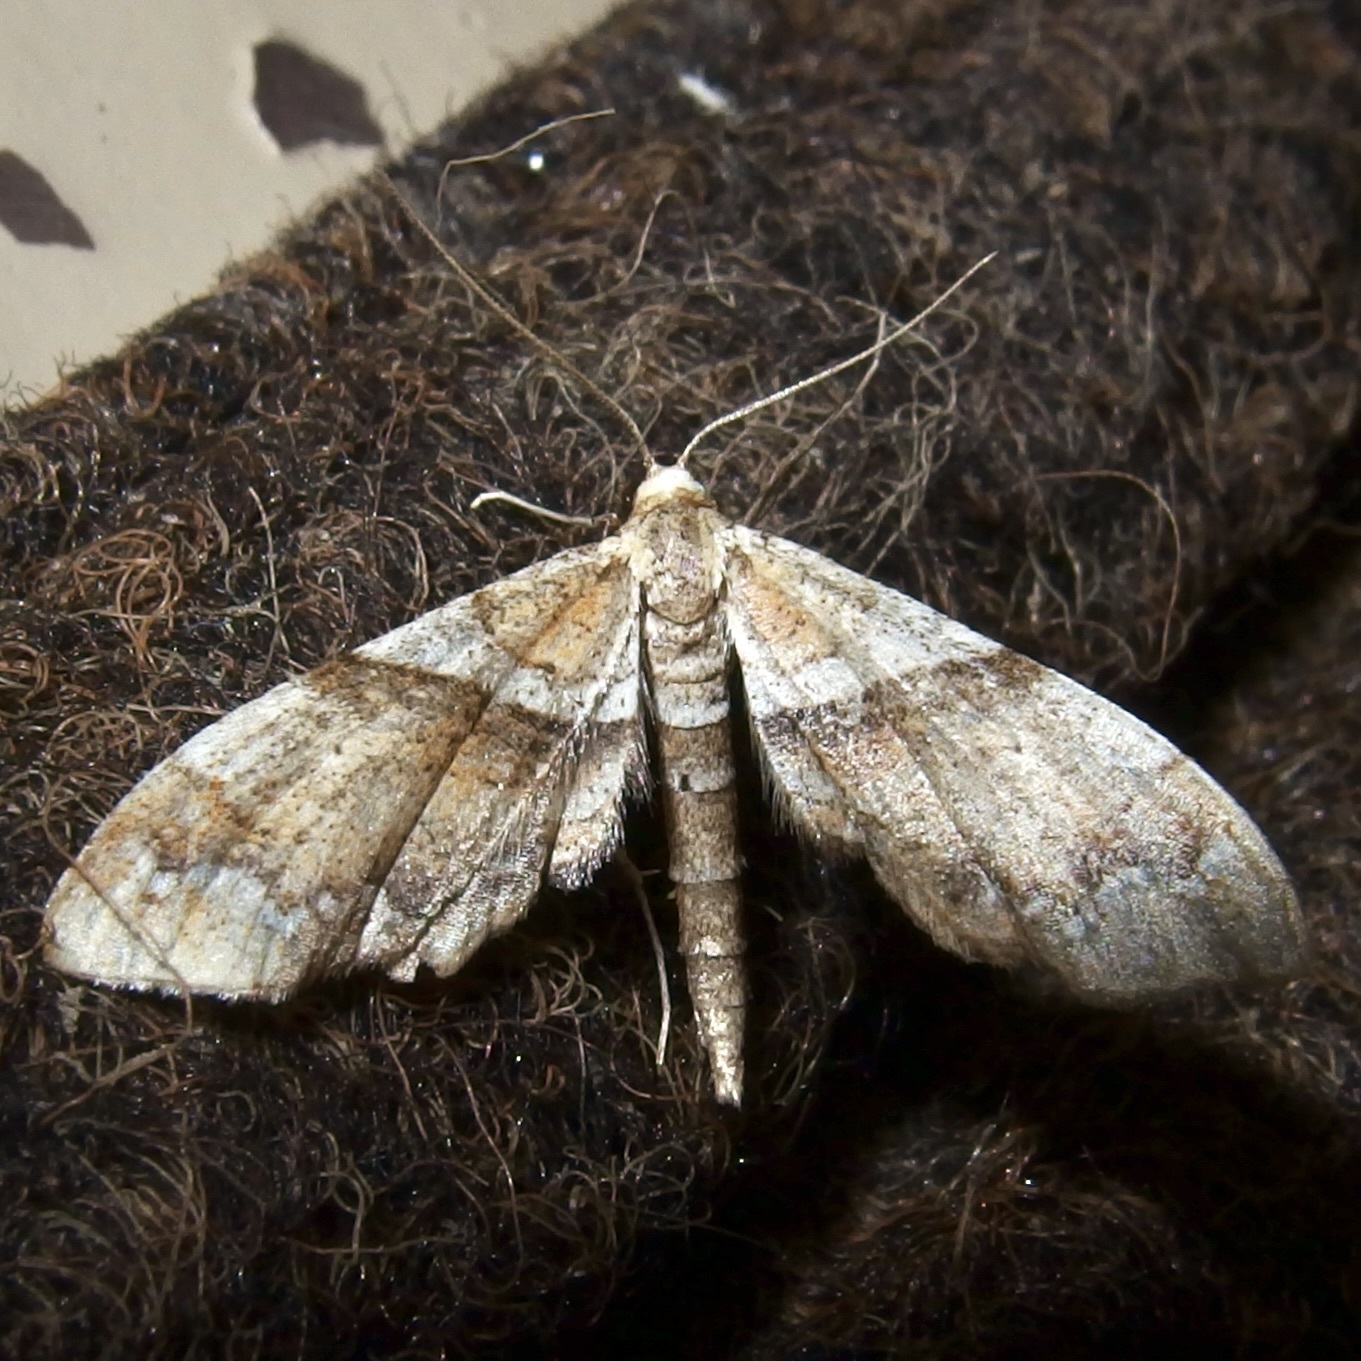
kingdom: Animalia
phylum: Arthropoda
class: Insecta
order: Lepidoptera
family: Geometridae
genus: Odontoptila
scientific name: Odontoptila obrimo
